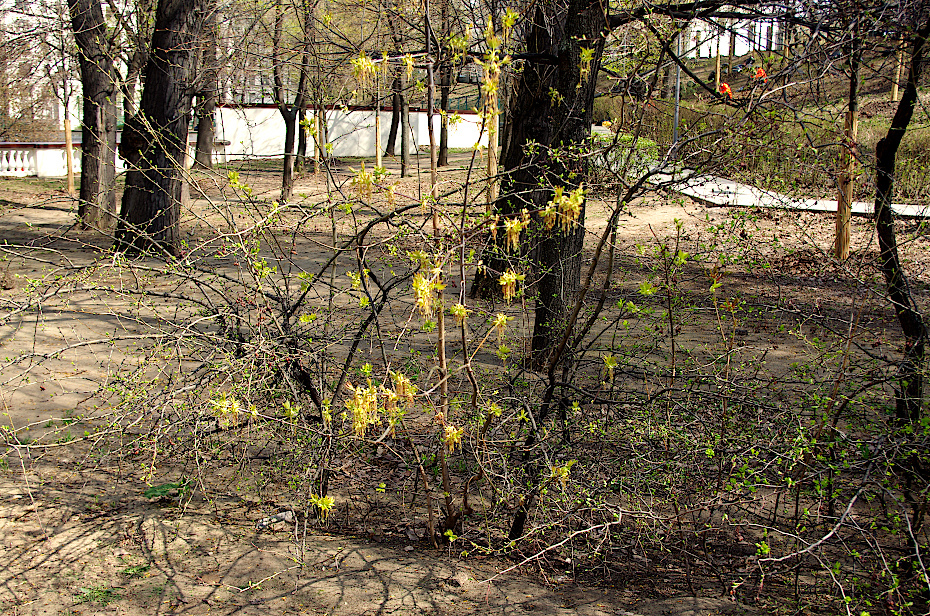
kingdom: Plantae
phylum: Tracheophyta
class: Magnoliopsida
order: Sapindales
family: Sapindaceae
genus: Acer
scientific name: Acer negundo
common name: Ashleaf maple
